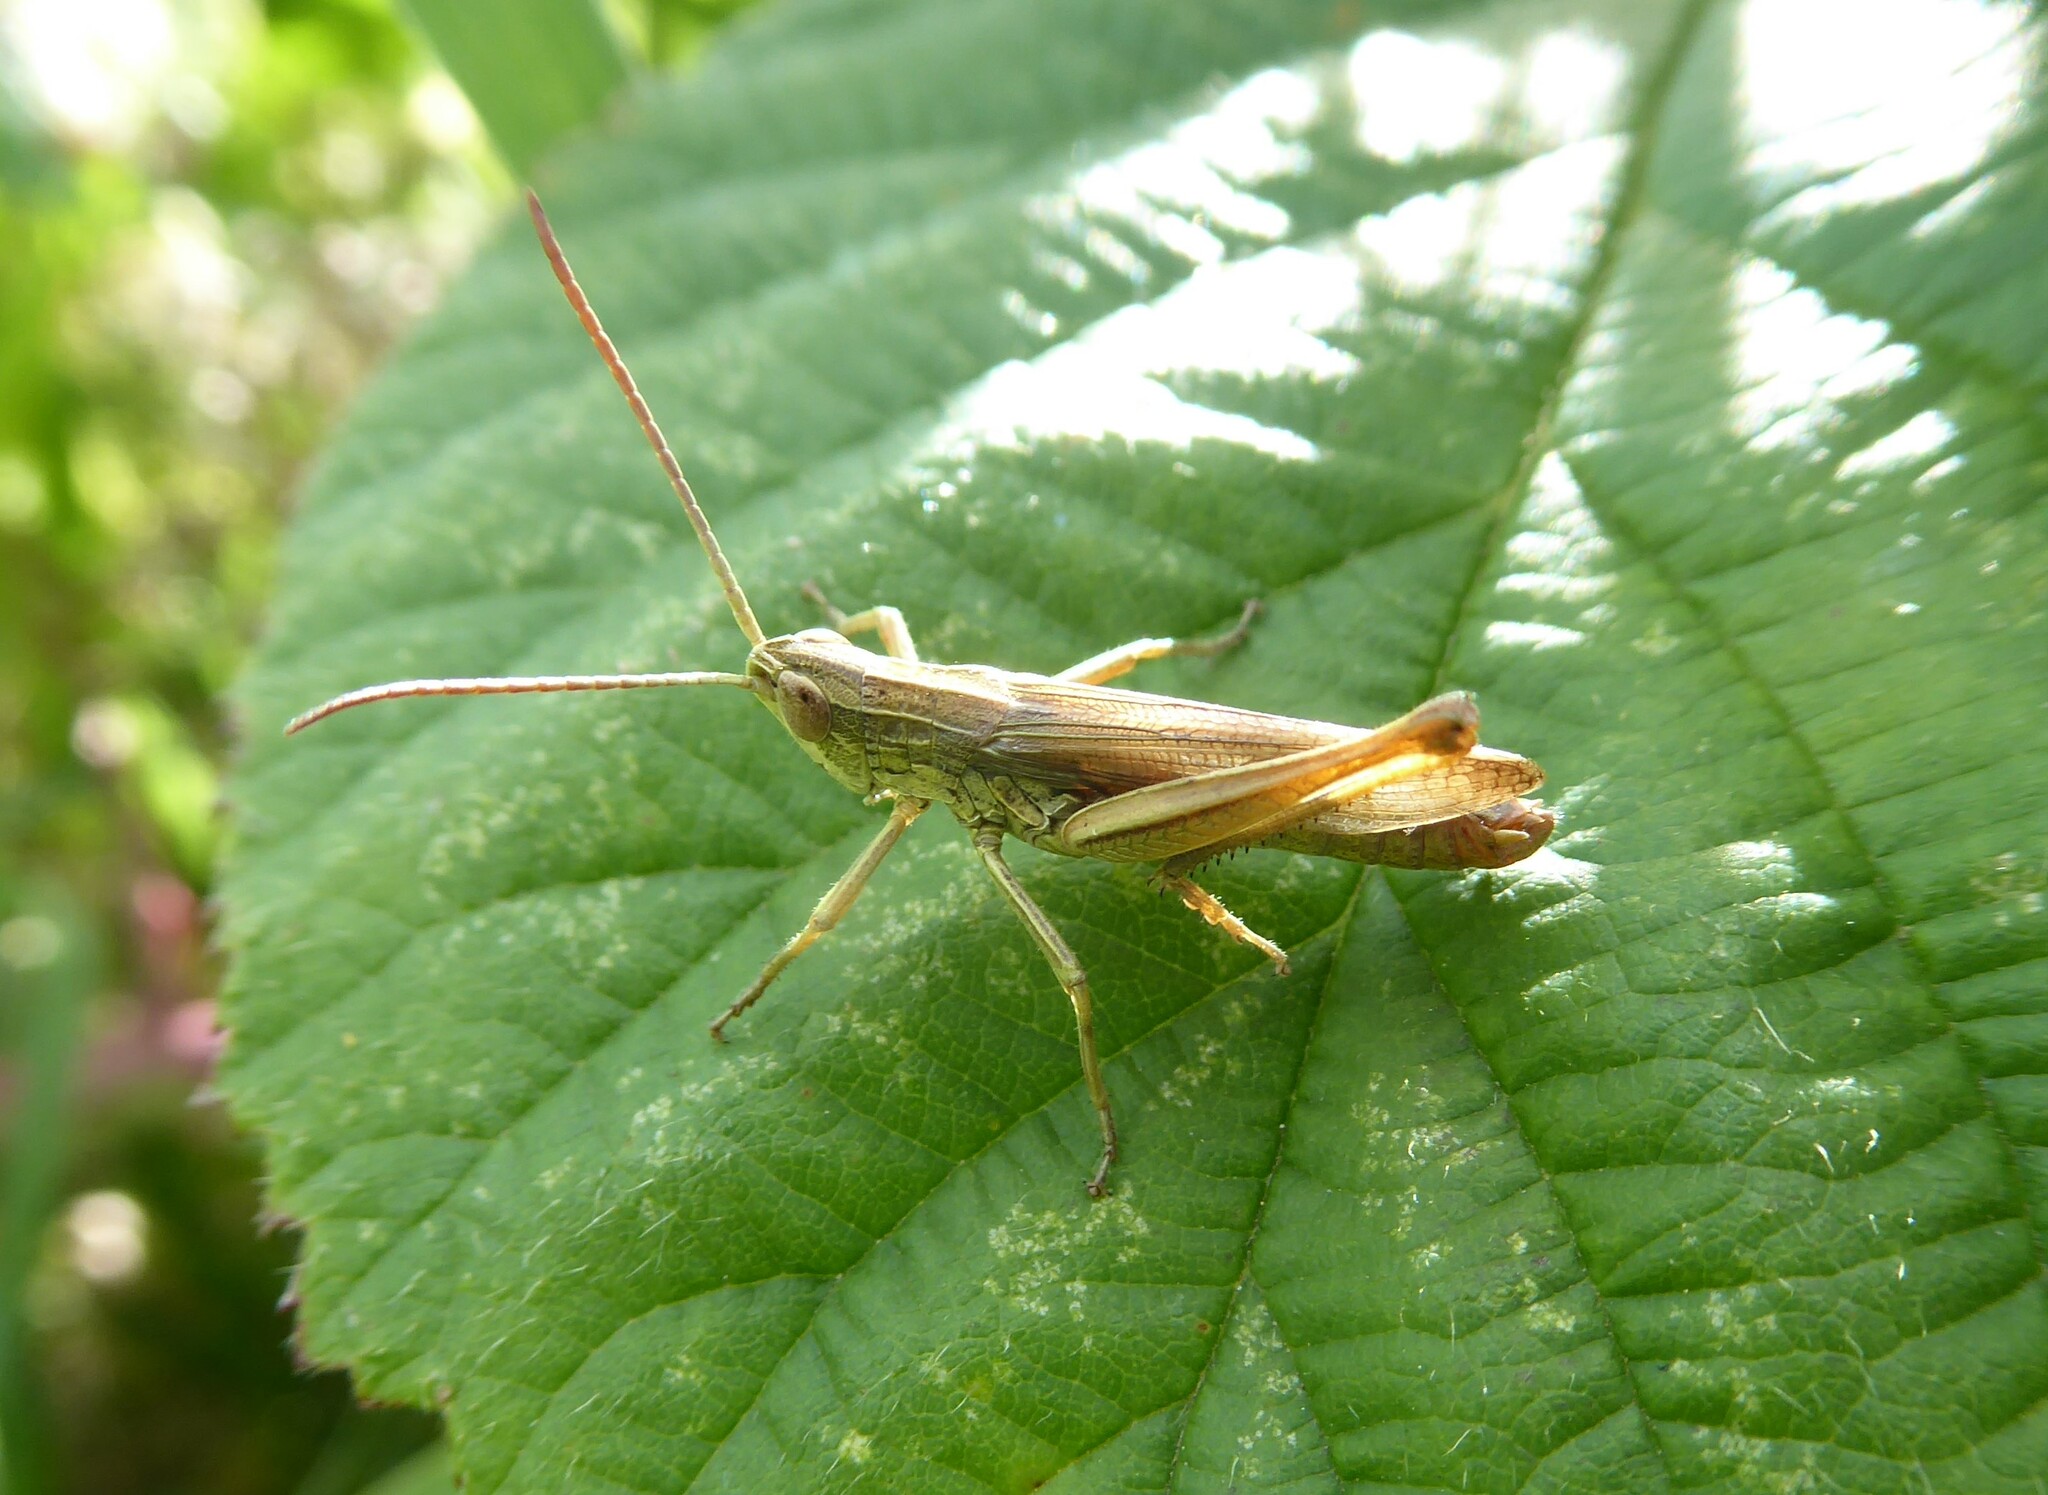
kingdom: Animalia
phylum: Arthropoda
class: Insecta
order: Orthoptera
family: Acrididae
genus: Chorthippus
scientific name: Chorthippus albomarginatus
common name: Lesser marsh grasshopper
